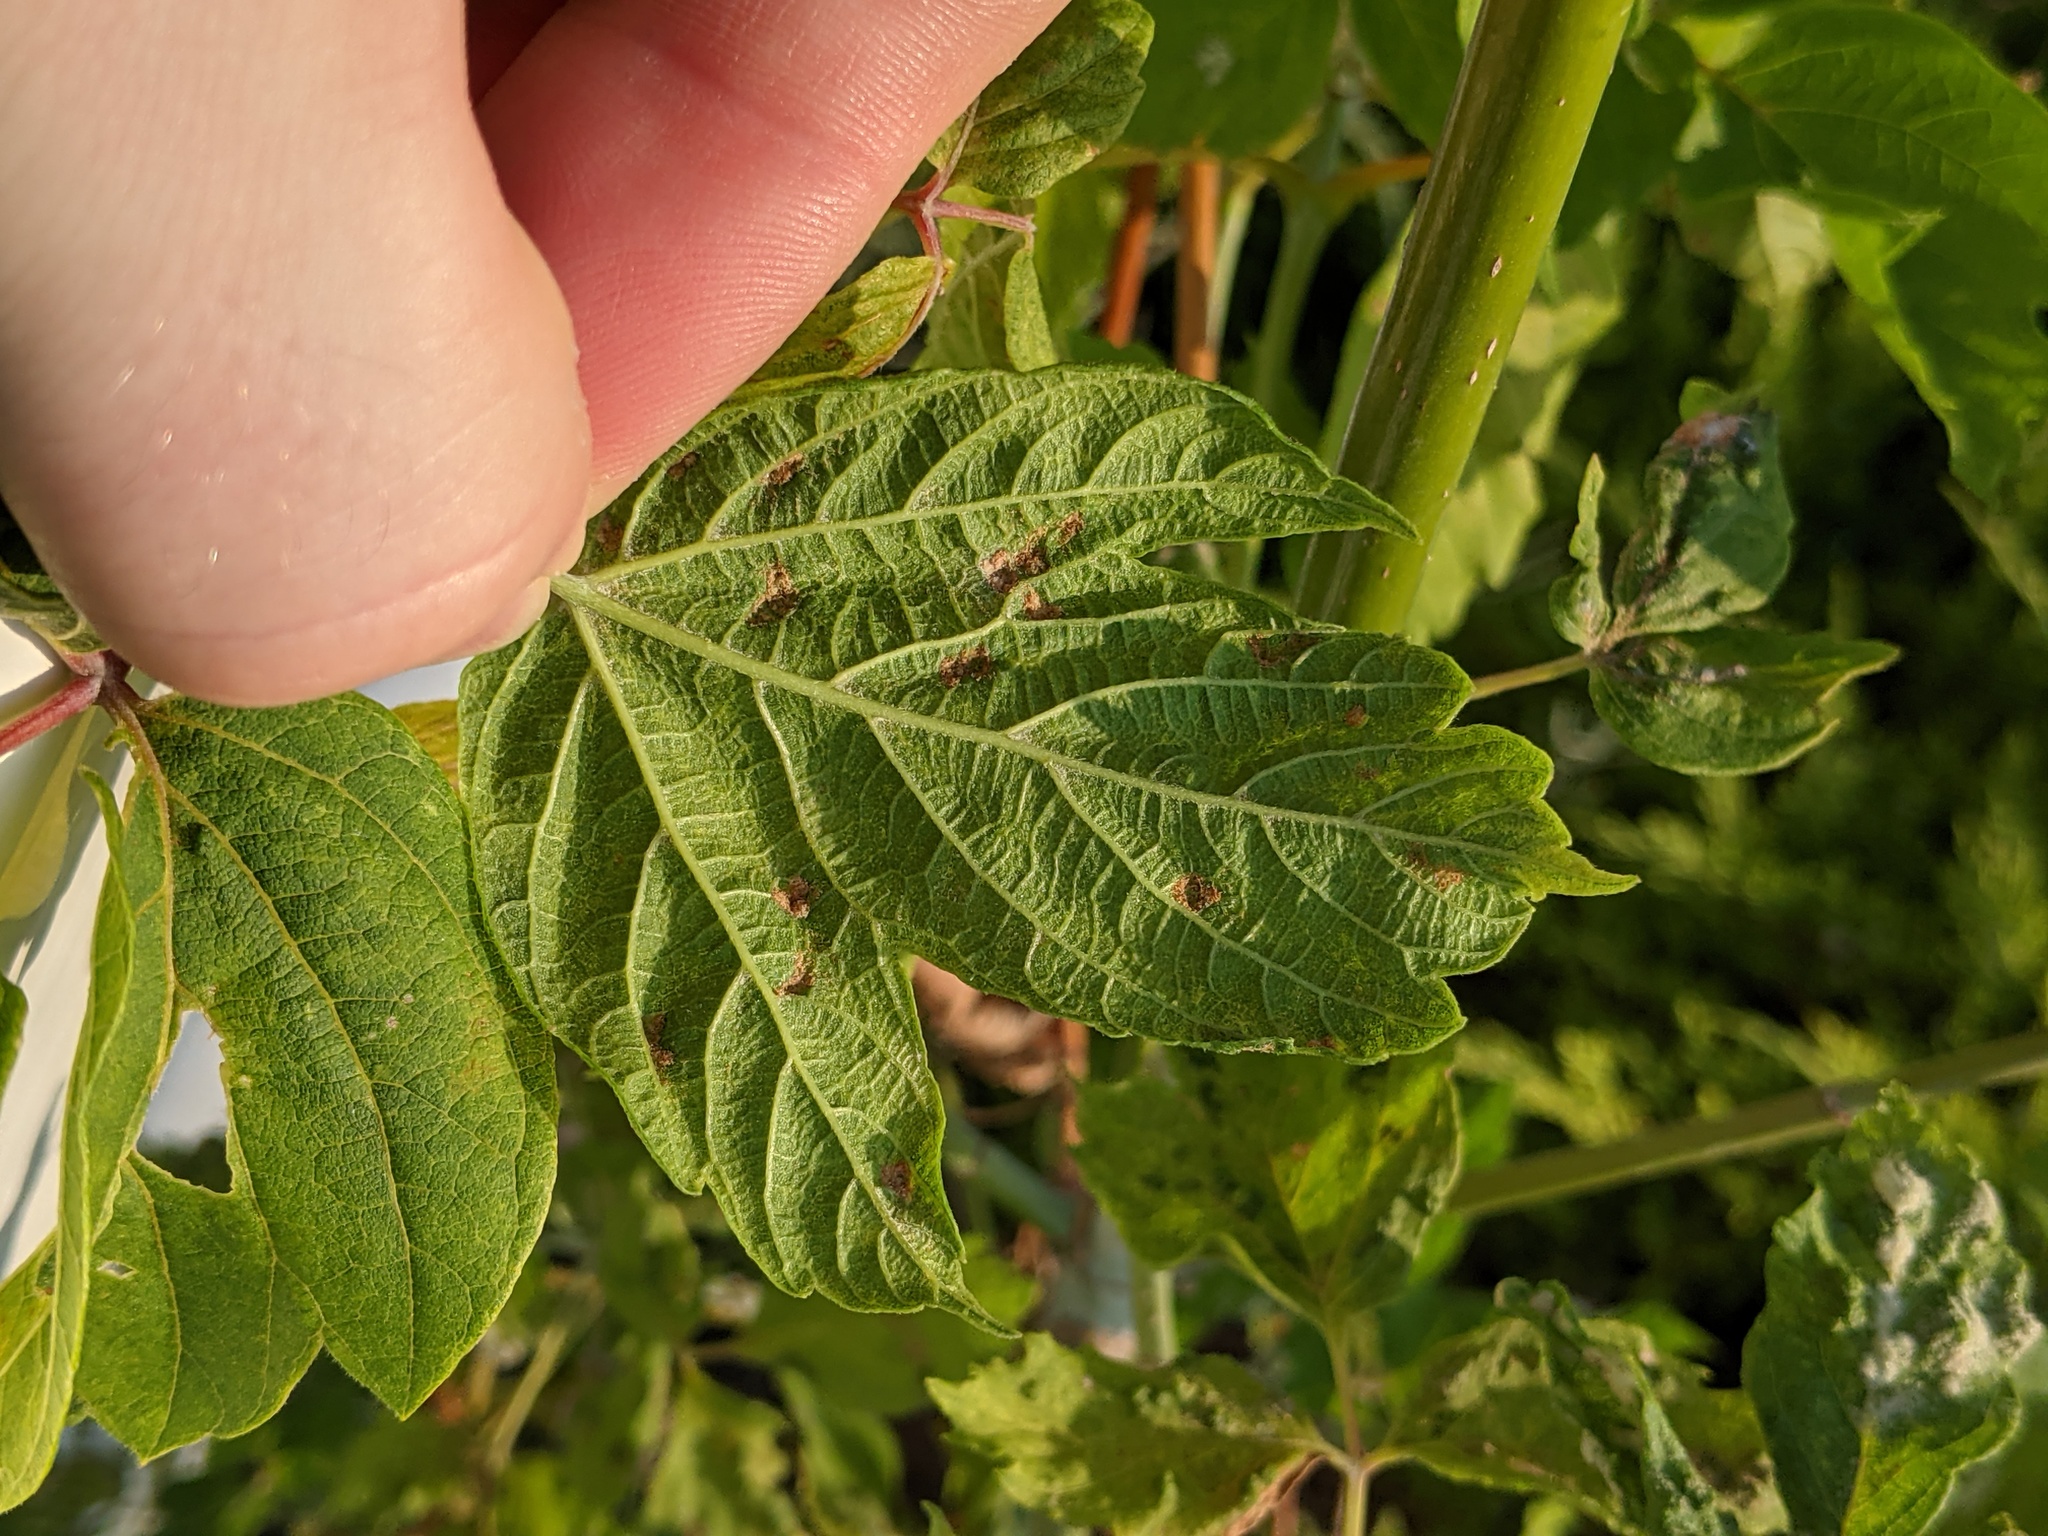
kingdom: Animalia
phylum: Arthropoda
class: Arachnida
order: Trombidiformes
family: Eriophyidae
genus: Aceria
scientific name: Aceria
